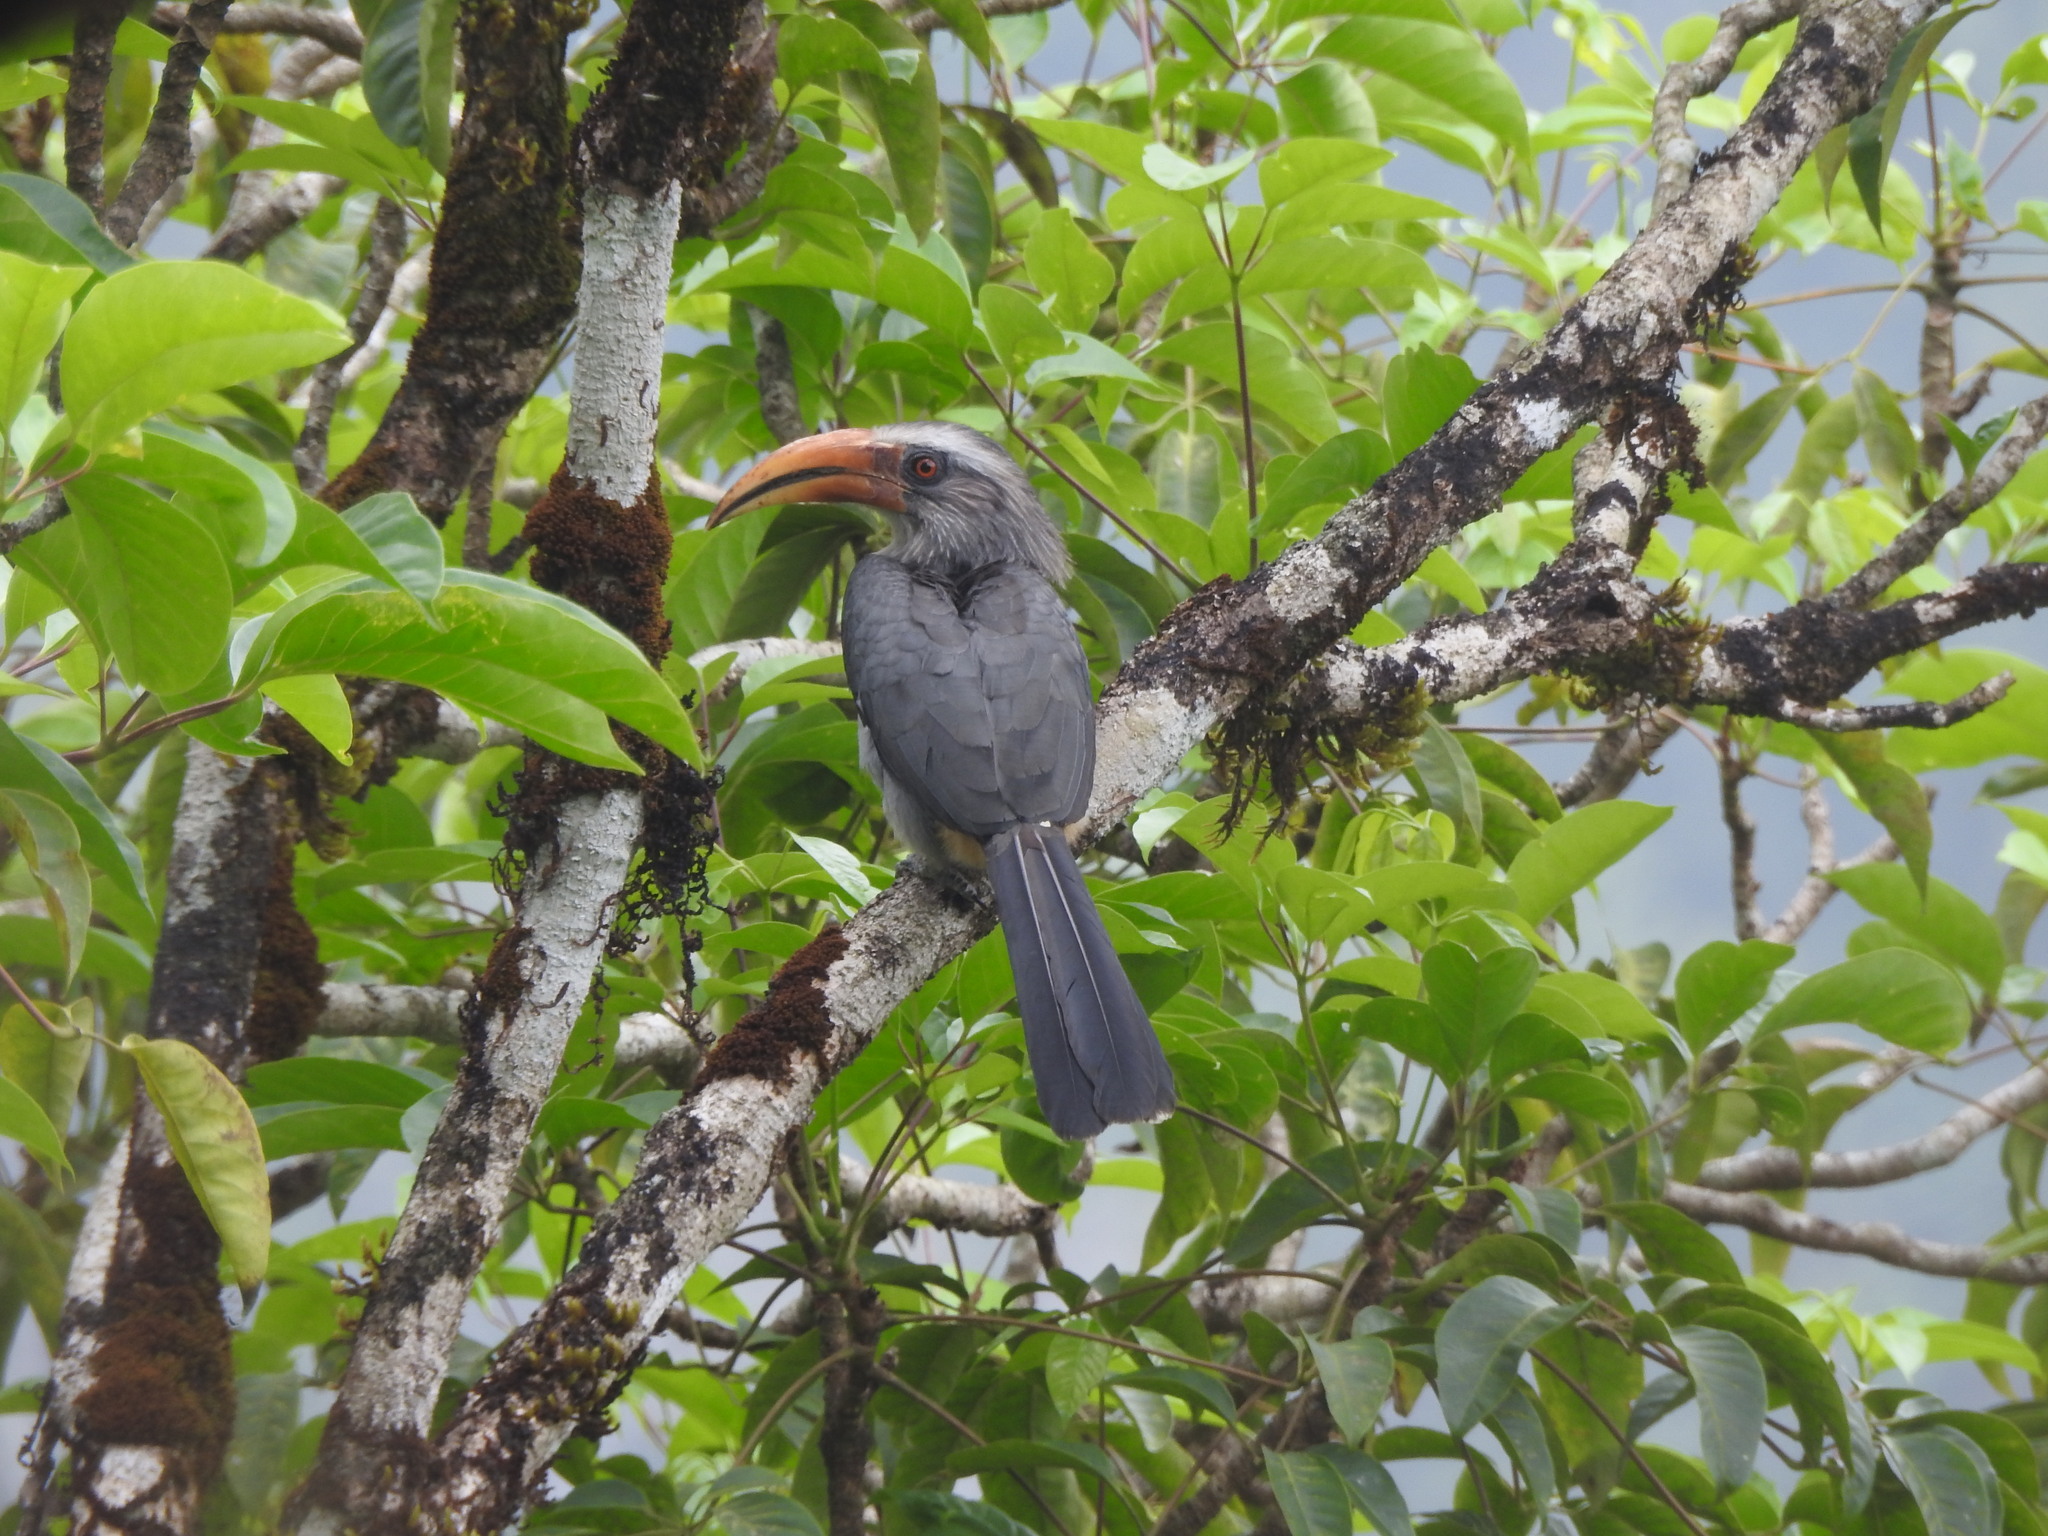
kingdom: Animalia
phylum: Chordata
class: Aves
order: Bucerotiformes
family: Bucerotidae
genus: Ocyceros
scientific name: Ocyceros griseus
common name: Malabar grey hornbill
